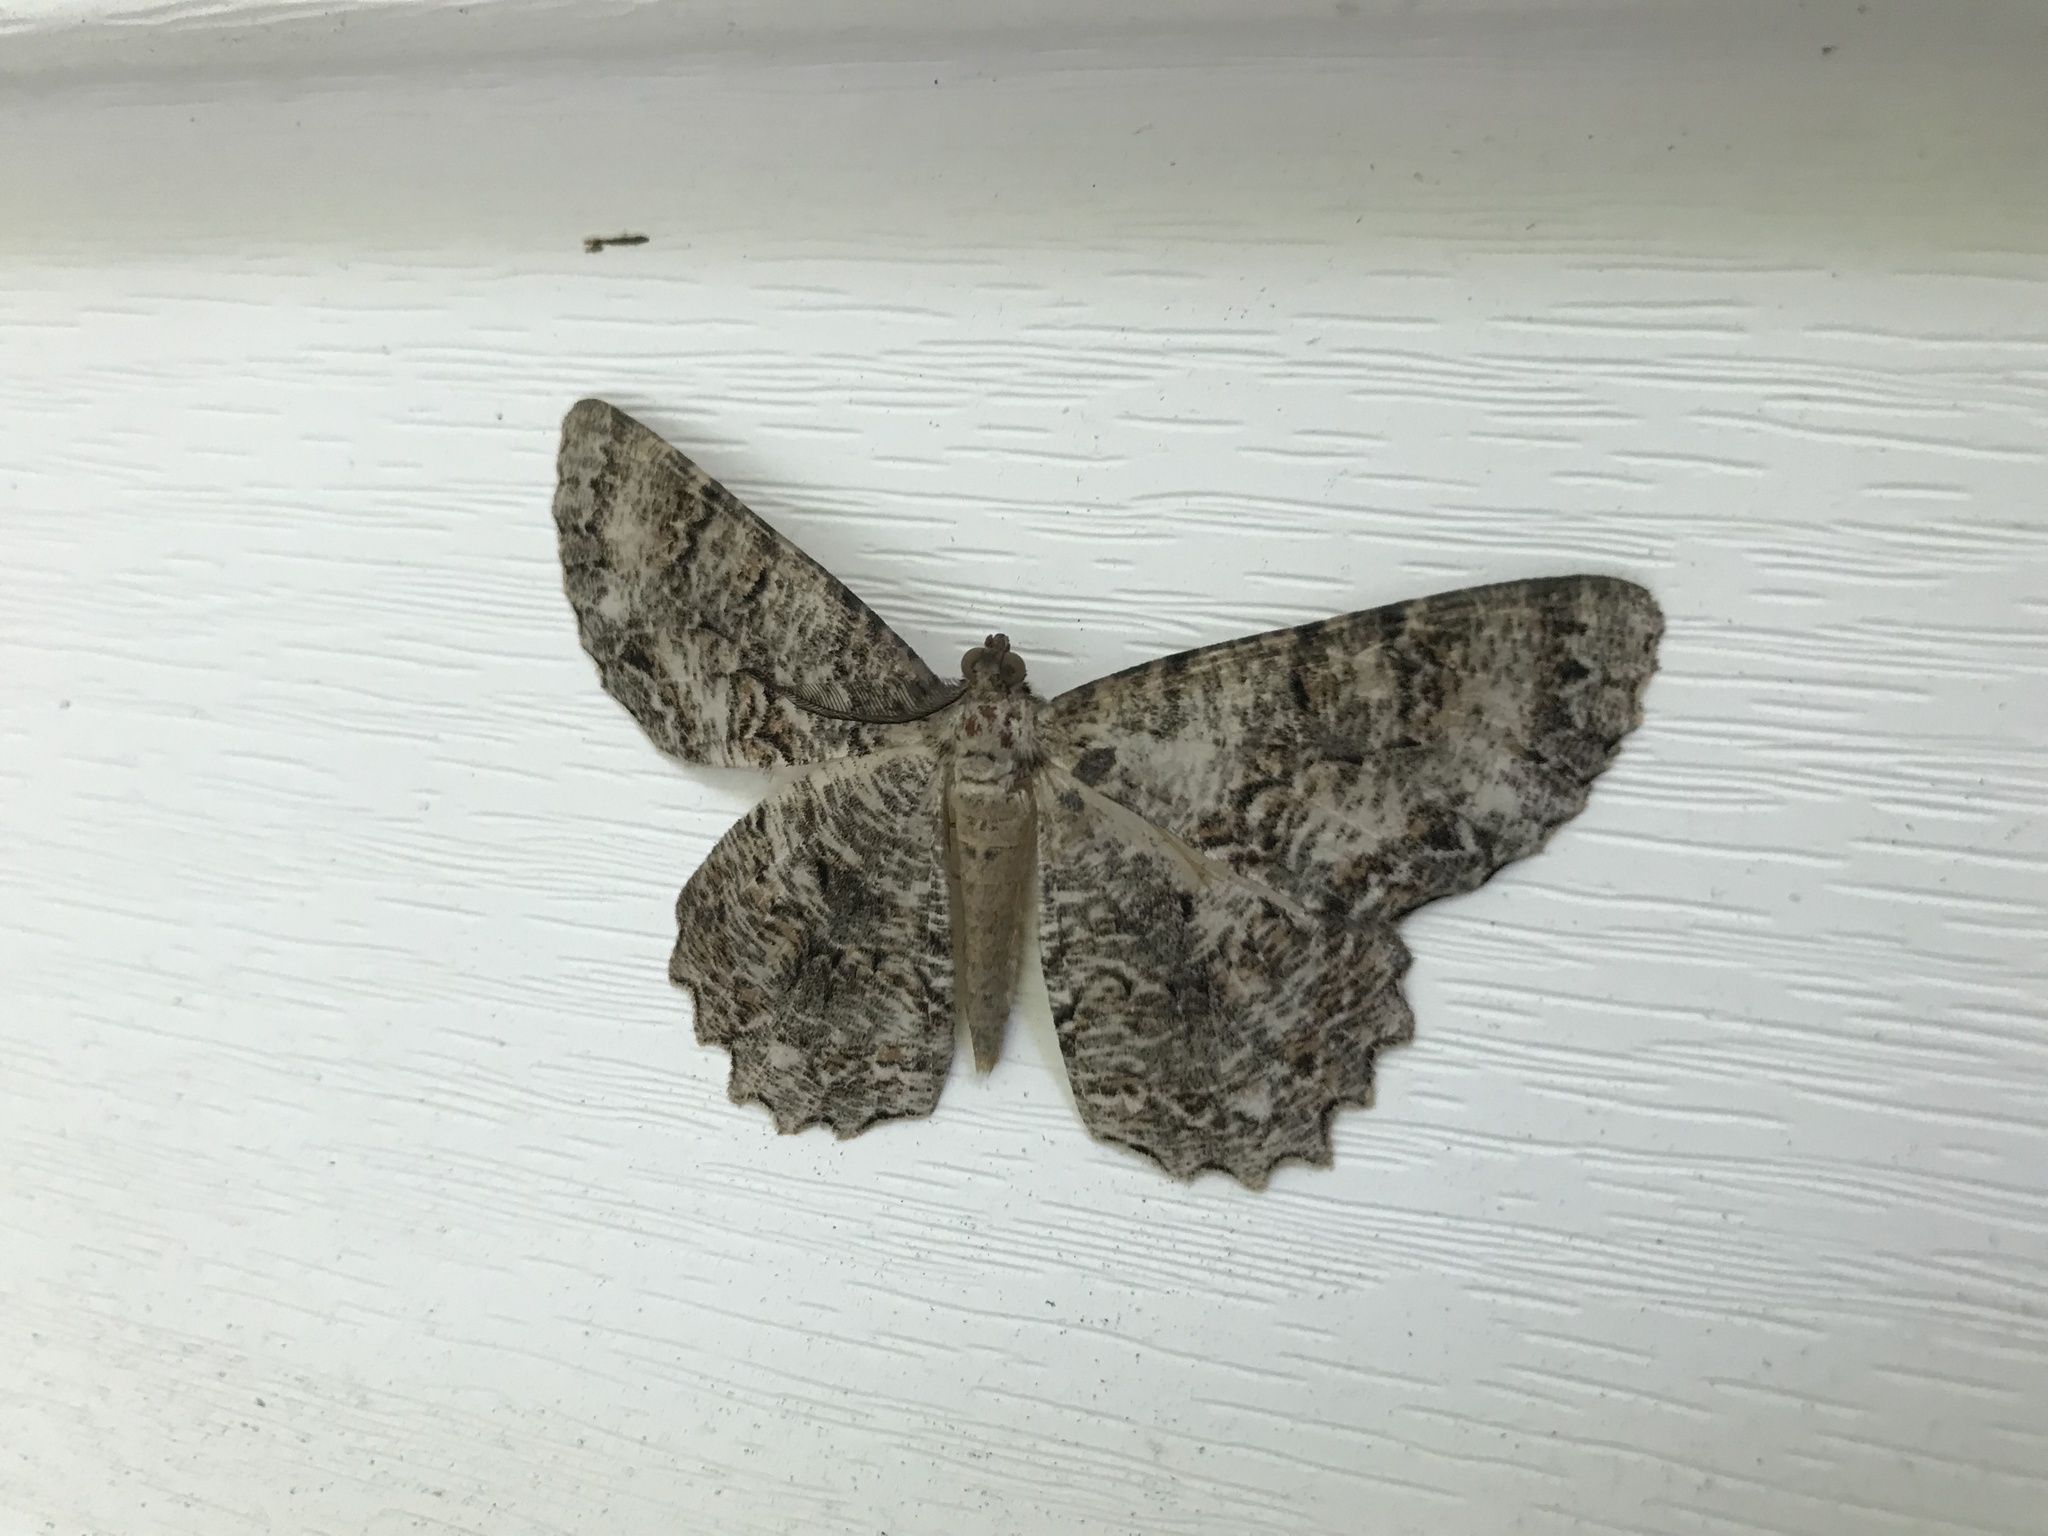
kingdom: Animalia
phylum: Arthropoda
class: Insecta
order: Lepidoptera
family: Geometridae
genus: Epimecis
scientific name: Epimecis hortaria
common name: Tulip-tree beauty
